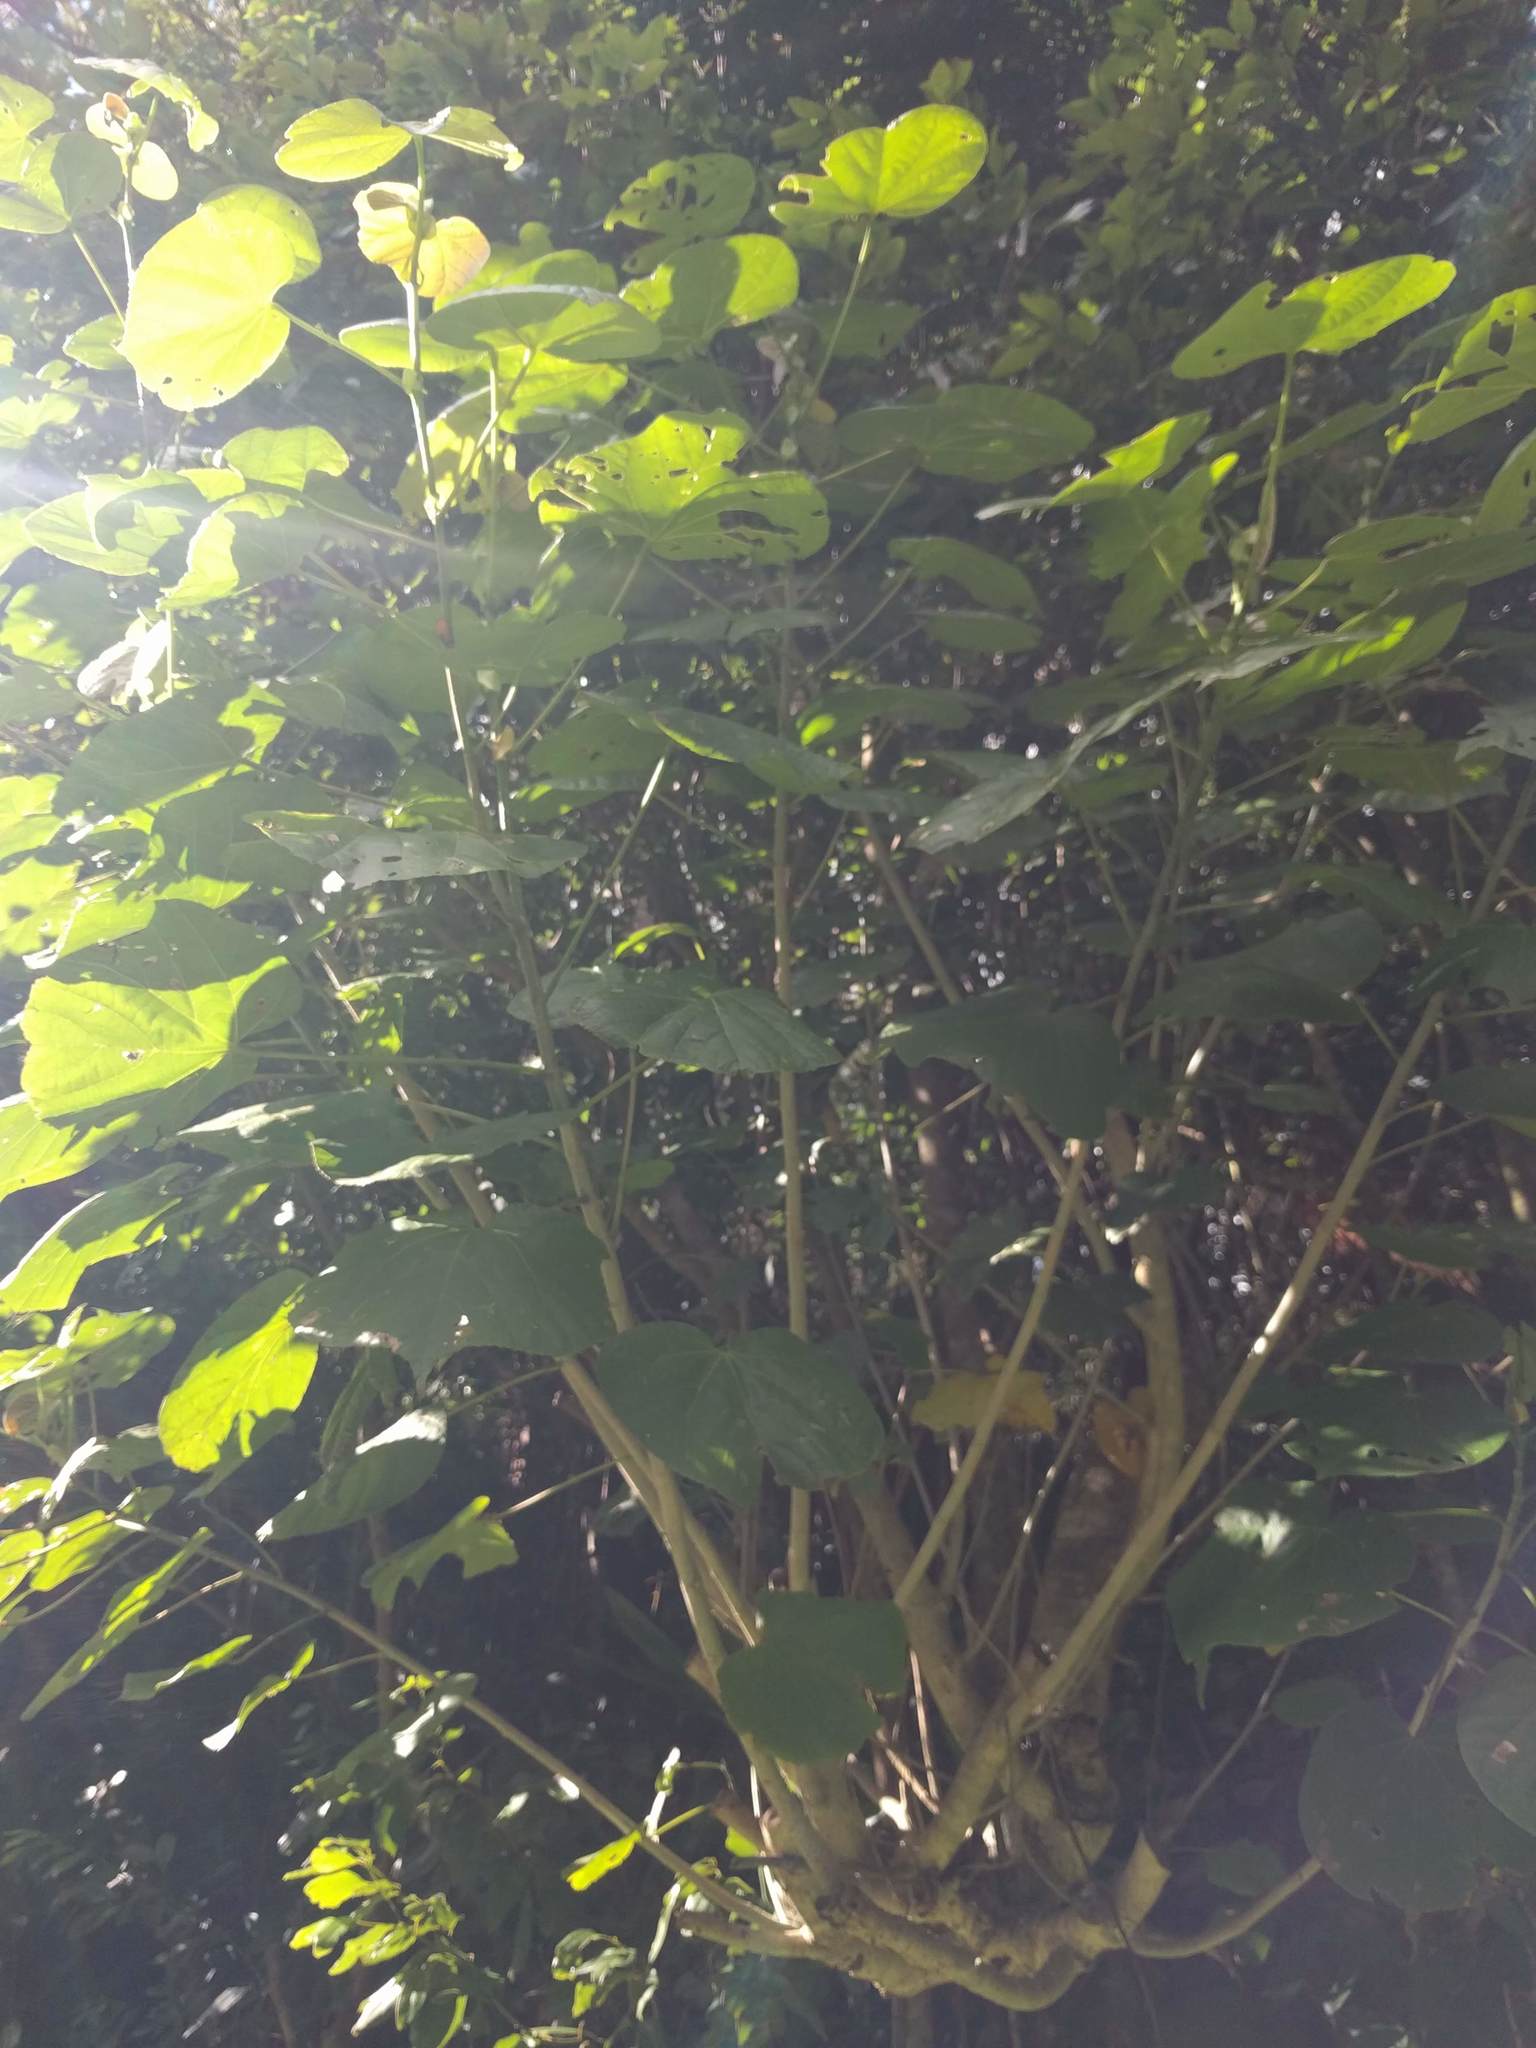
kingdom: Plantae
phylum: Tracheophyta
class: Magnoliopsida
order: Malvales
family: Malvaceae
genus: Talipariti
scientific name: Talipariti tiliaceum
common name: Sea hibiscus
